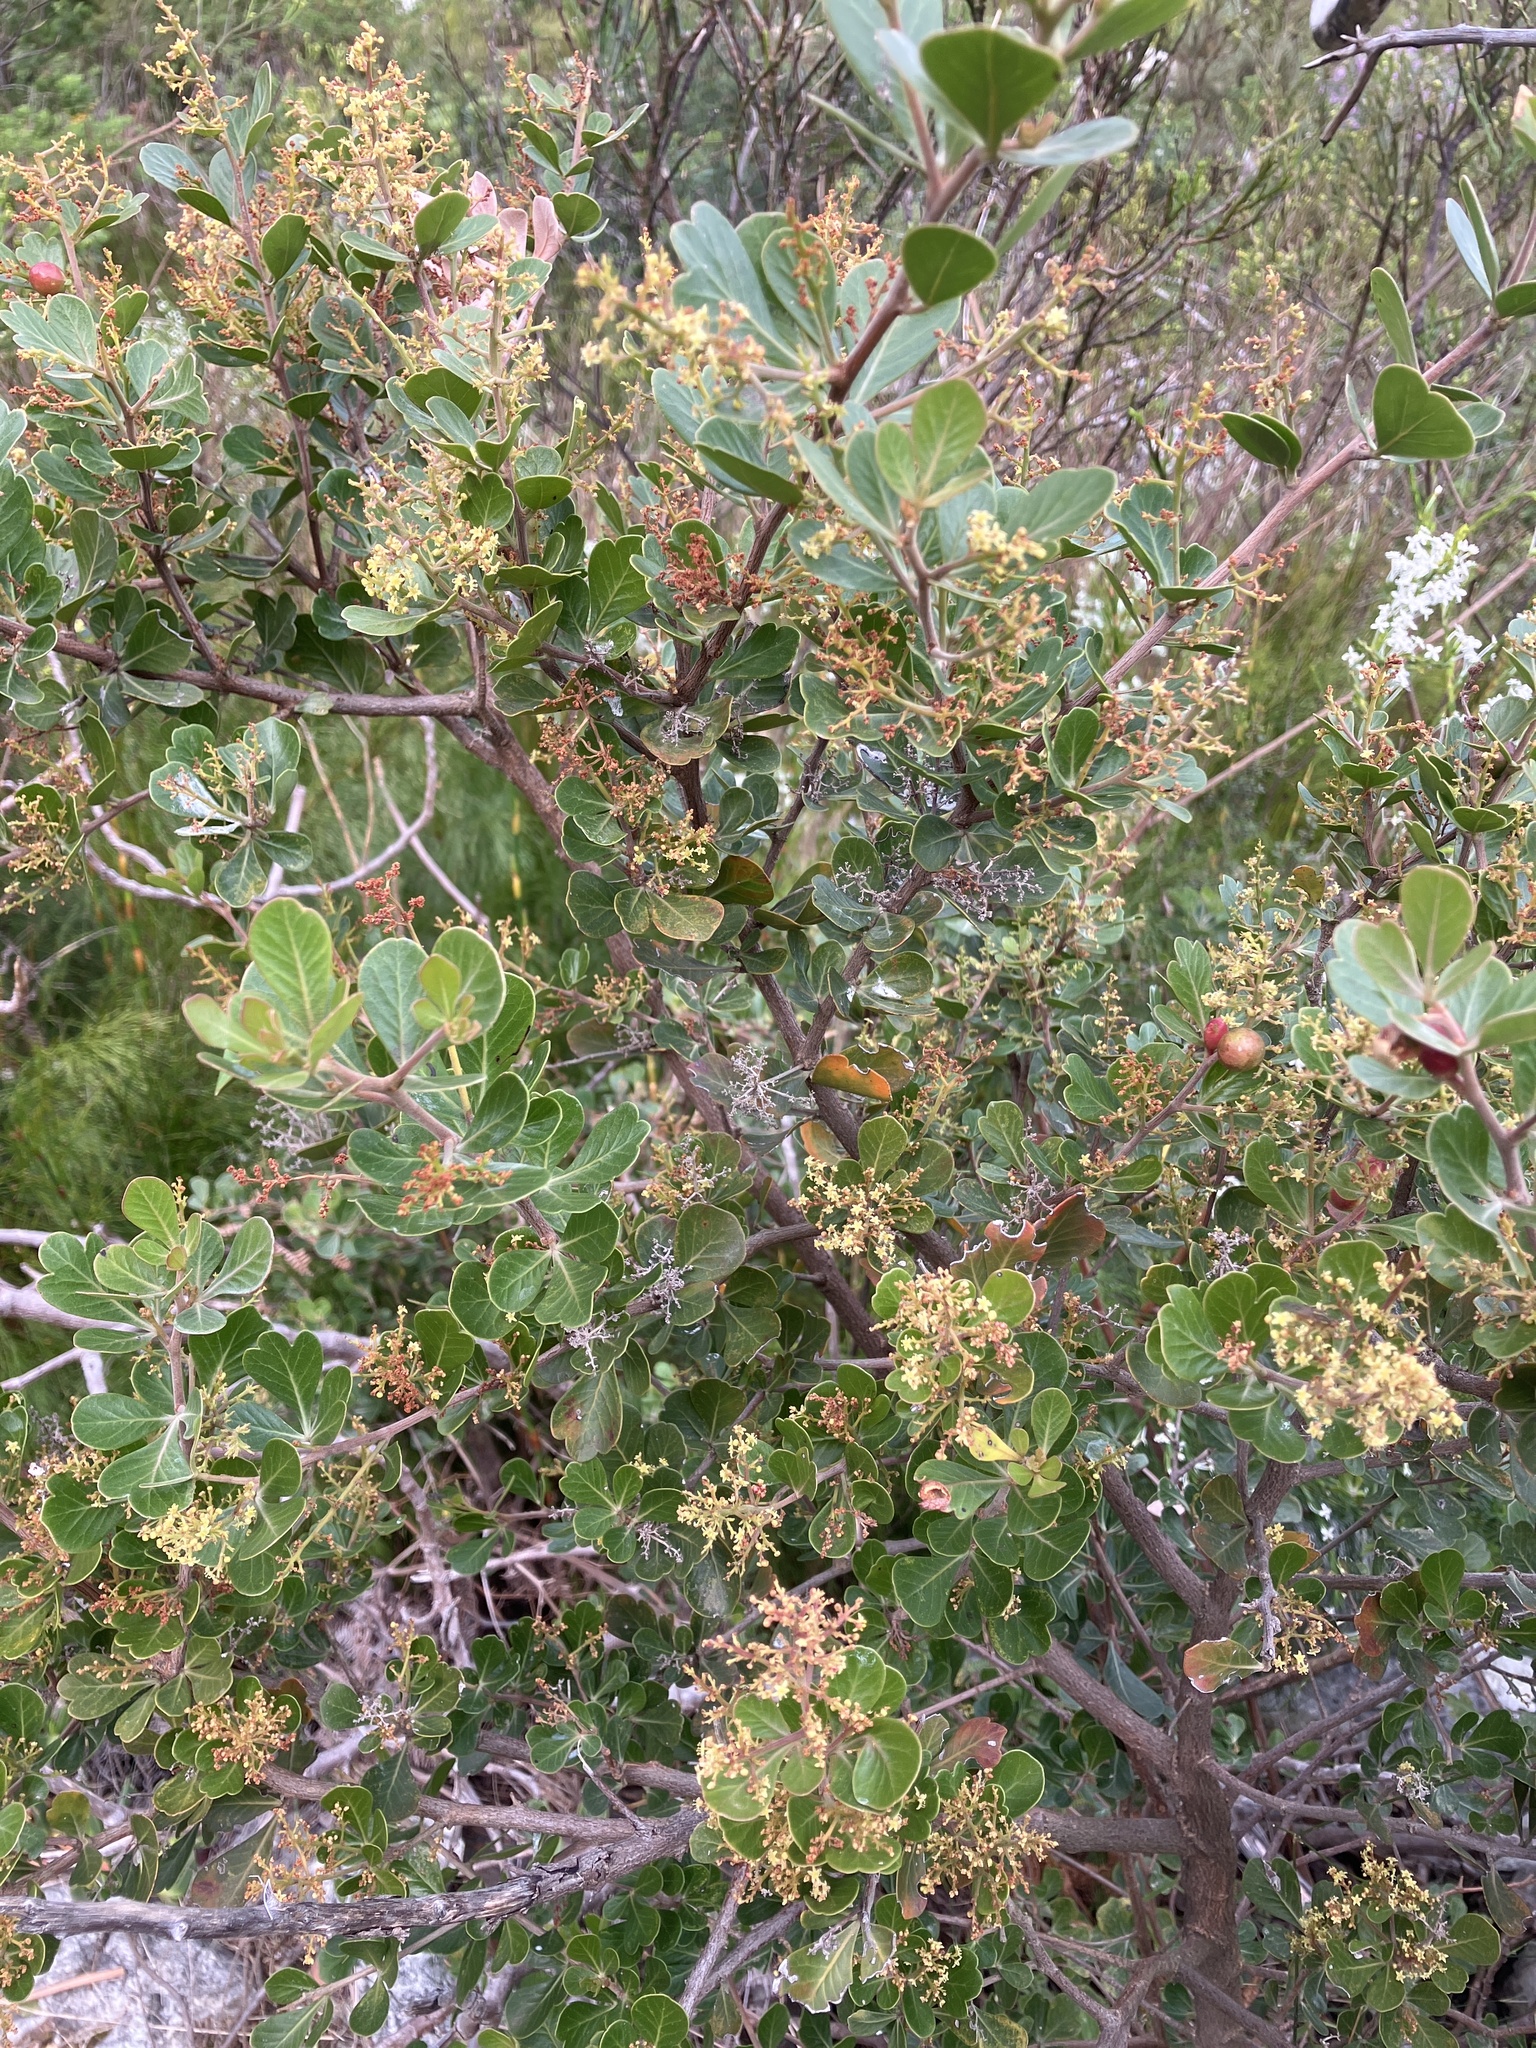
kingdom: Plantae
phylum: Tracheophyta
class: Magnoliopsida
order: Sapindales
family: Anacardiaceae
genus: Searsia
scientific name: Searsia lucida
